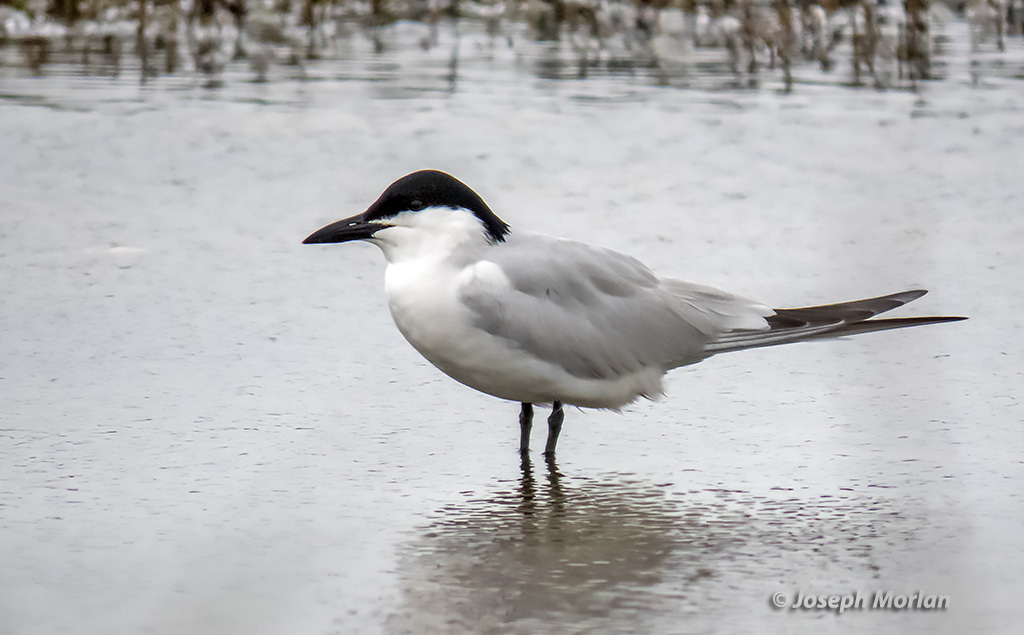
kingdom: Animalia
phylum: Chordata
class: Aves
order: Charadriiformes
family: Laridae
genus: Gelochelidon
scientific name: Gelochelidon nilotica
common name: Gull-billed tern
